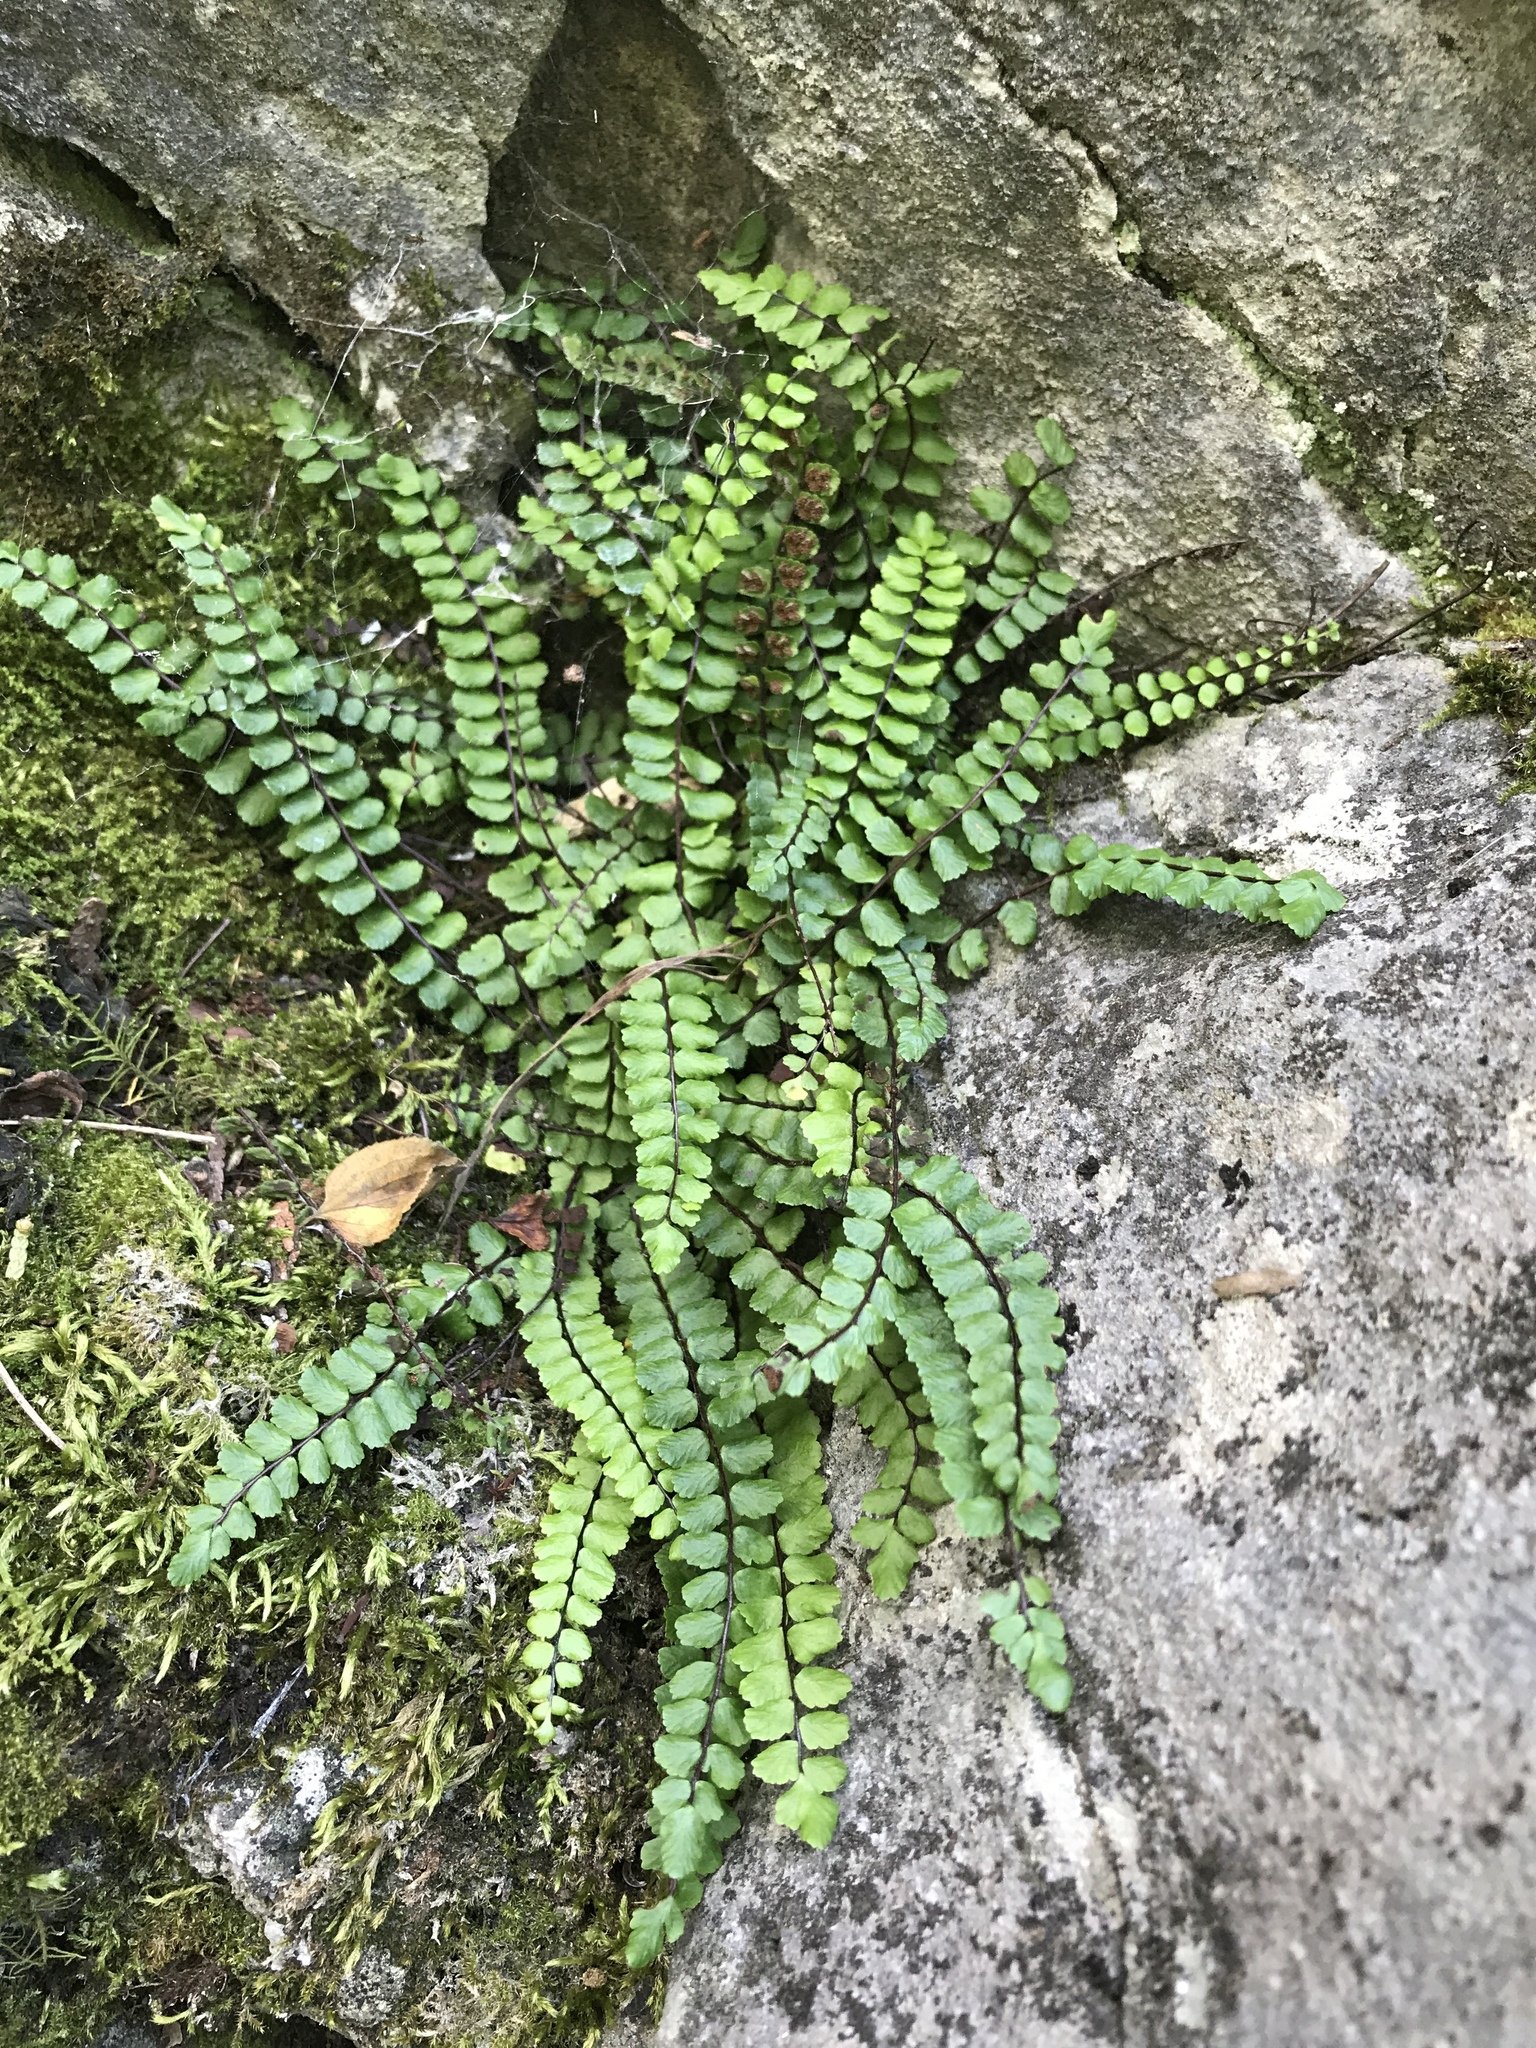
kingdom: Plantae
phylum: Tracheophyta
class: Polypodiopsida
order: Polypodiales
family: Aspleniaceae
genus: Asplenium
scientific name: Asplenium trichomanes
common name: Maidenhair spleenwort
